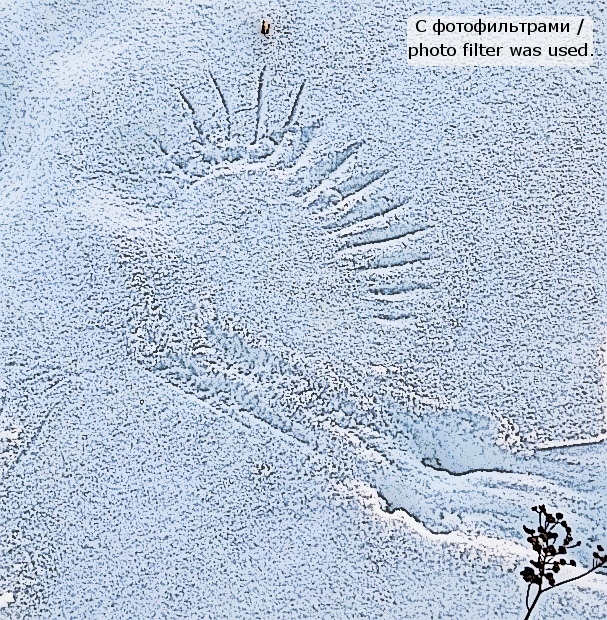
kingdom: Animalia
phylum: Chordata
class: Aves
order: Passeriformes
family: Corvidae
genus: Corvus
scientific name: Corvus cornix
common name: Hooded crow
